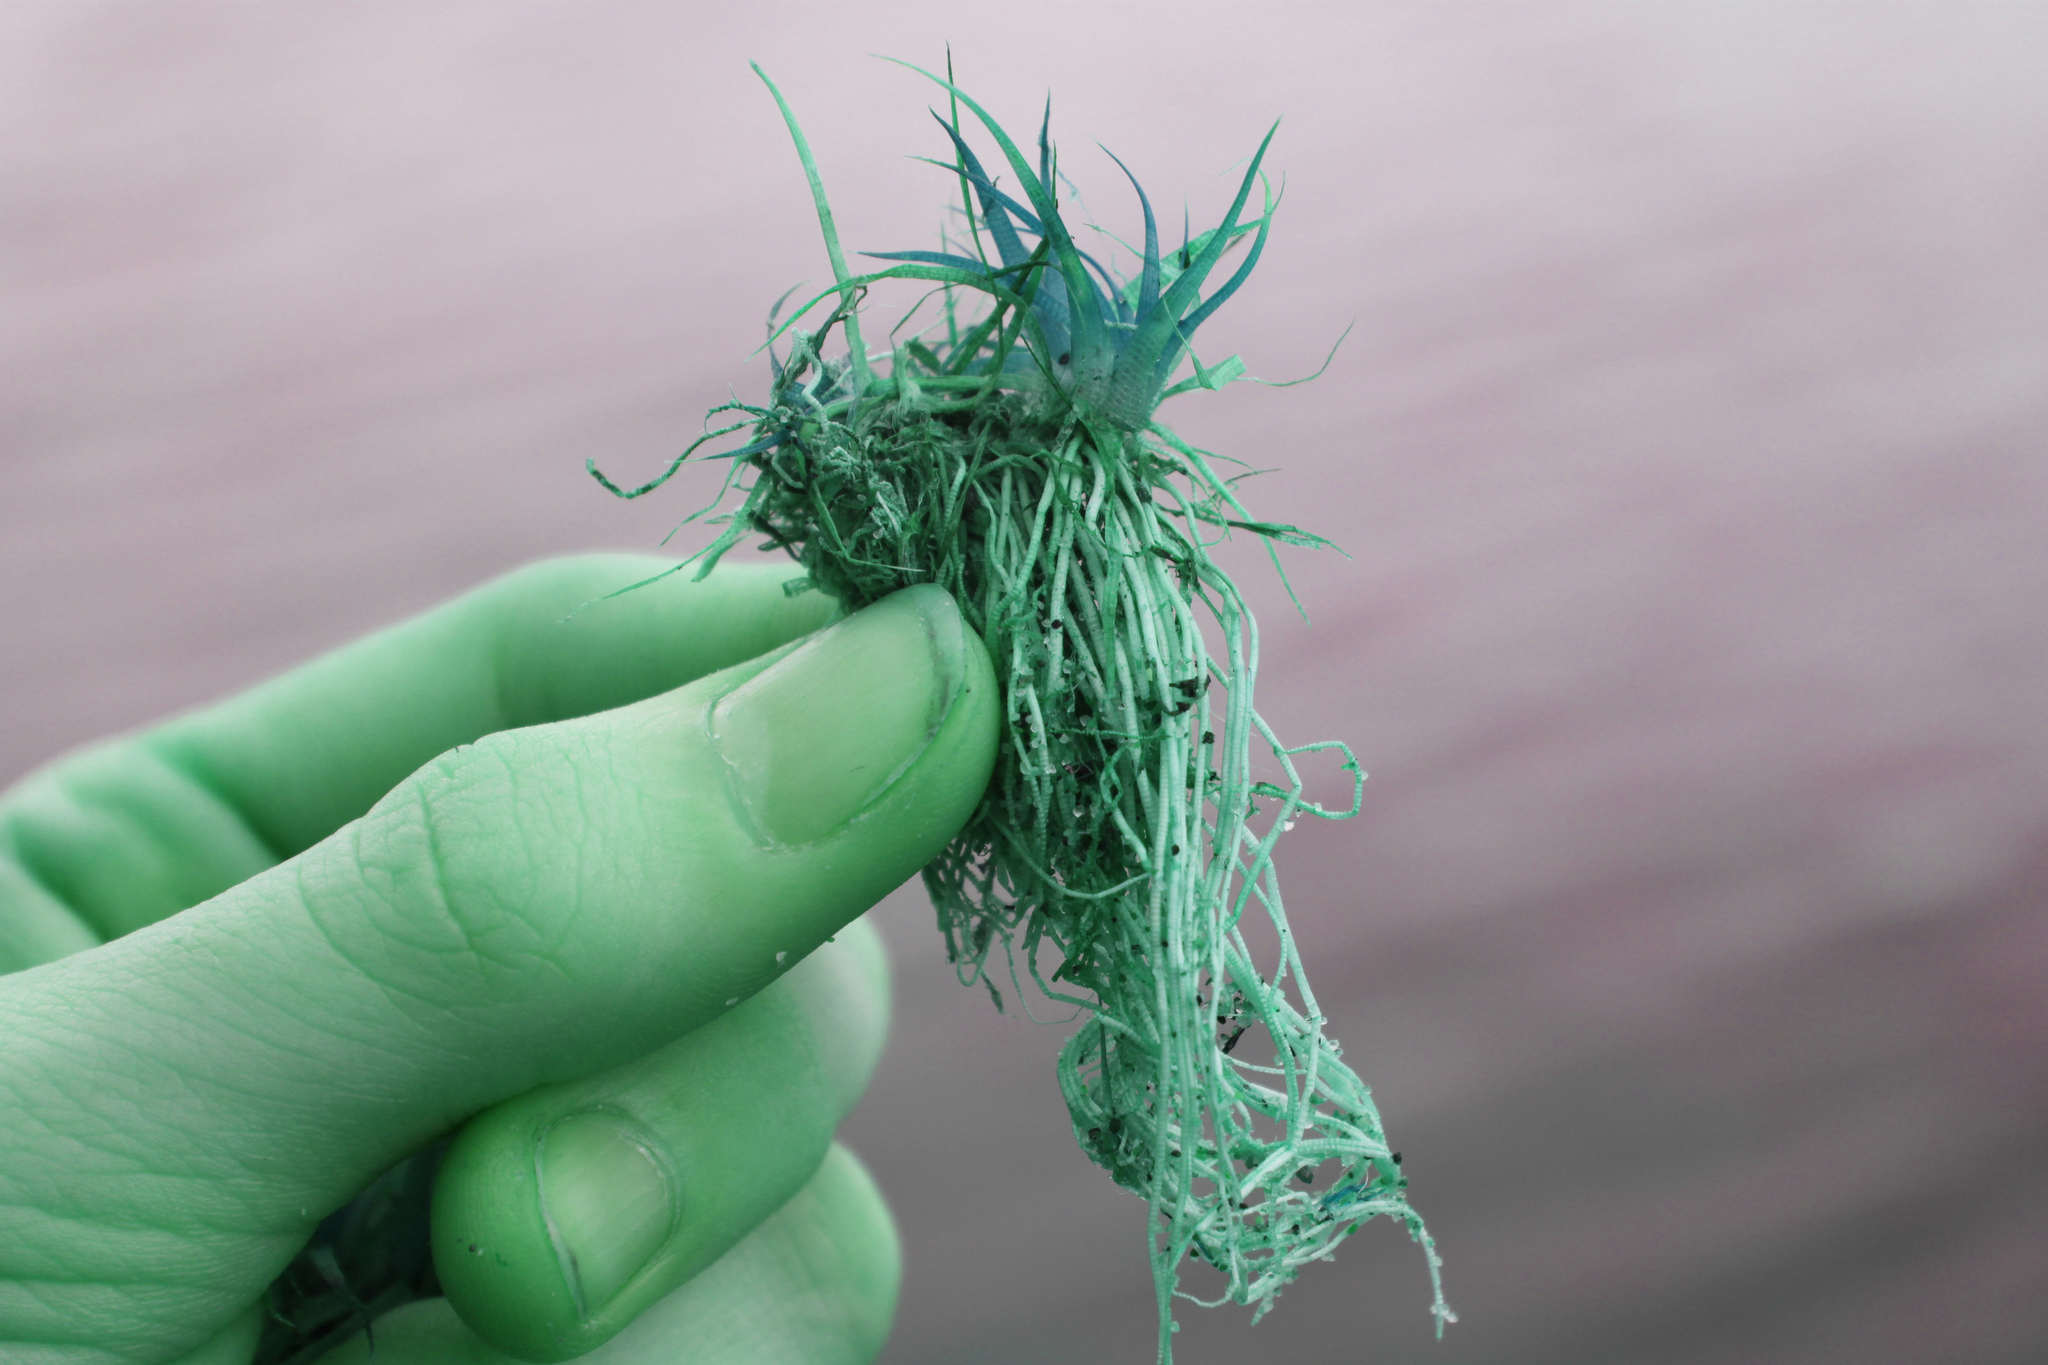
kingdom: Plantae
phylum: Tracheophyta
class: Liliopsida
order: Poales
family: Eriocaulaceae
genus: Eriocaulon
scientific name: Eriocaulon aquaticum
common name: Pipewort
